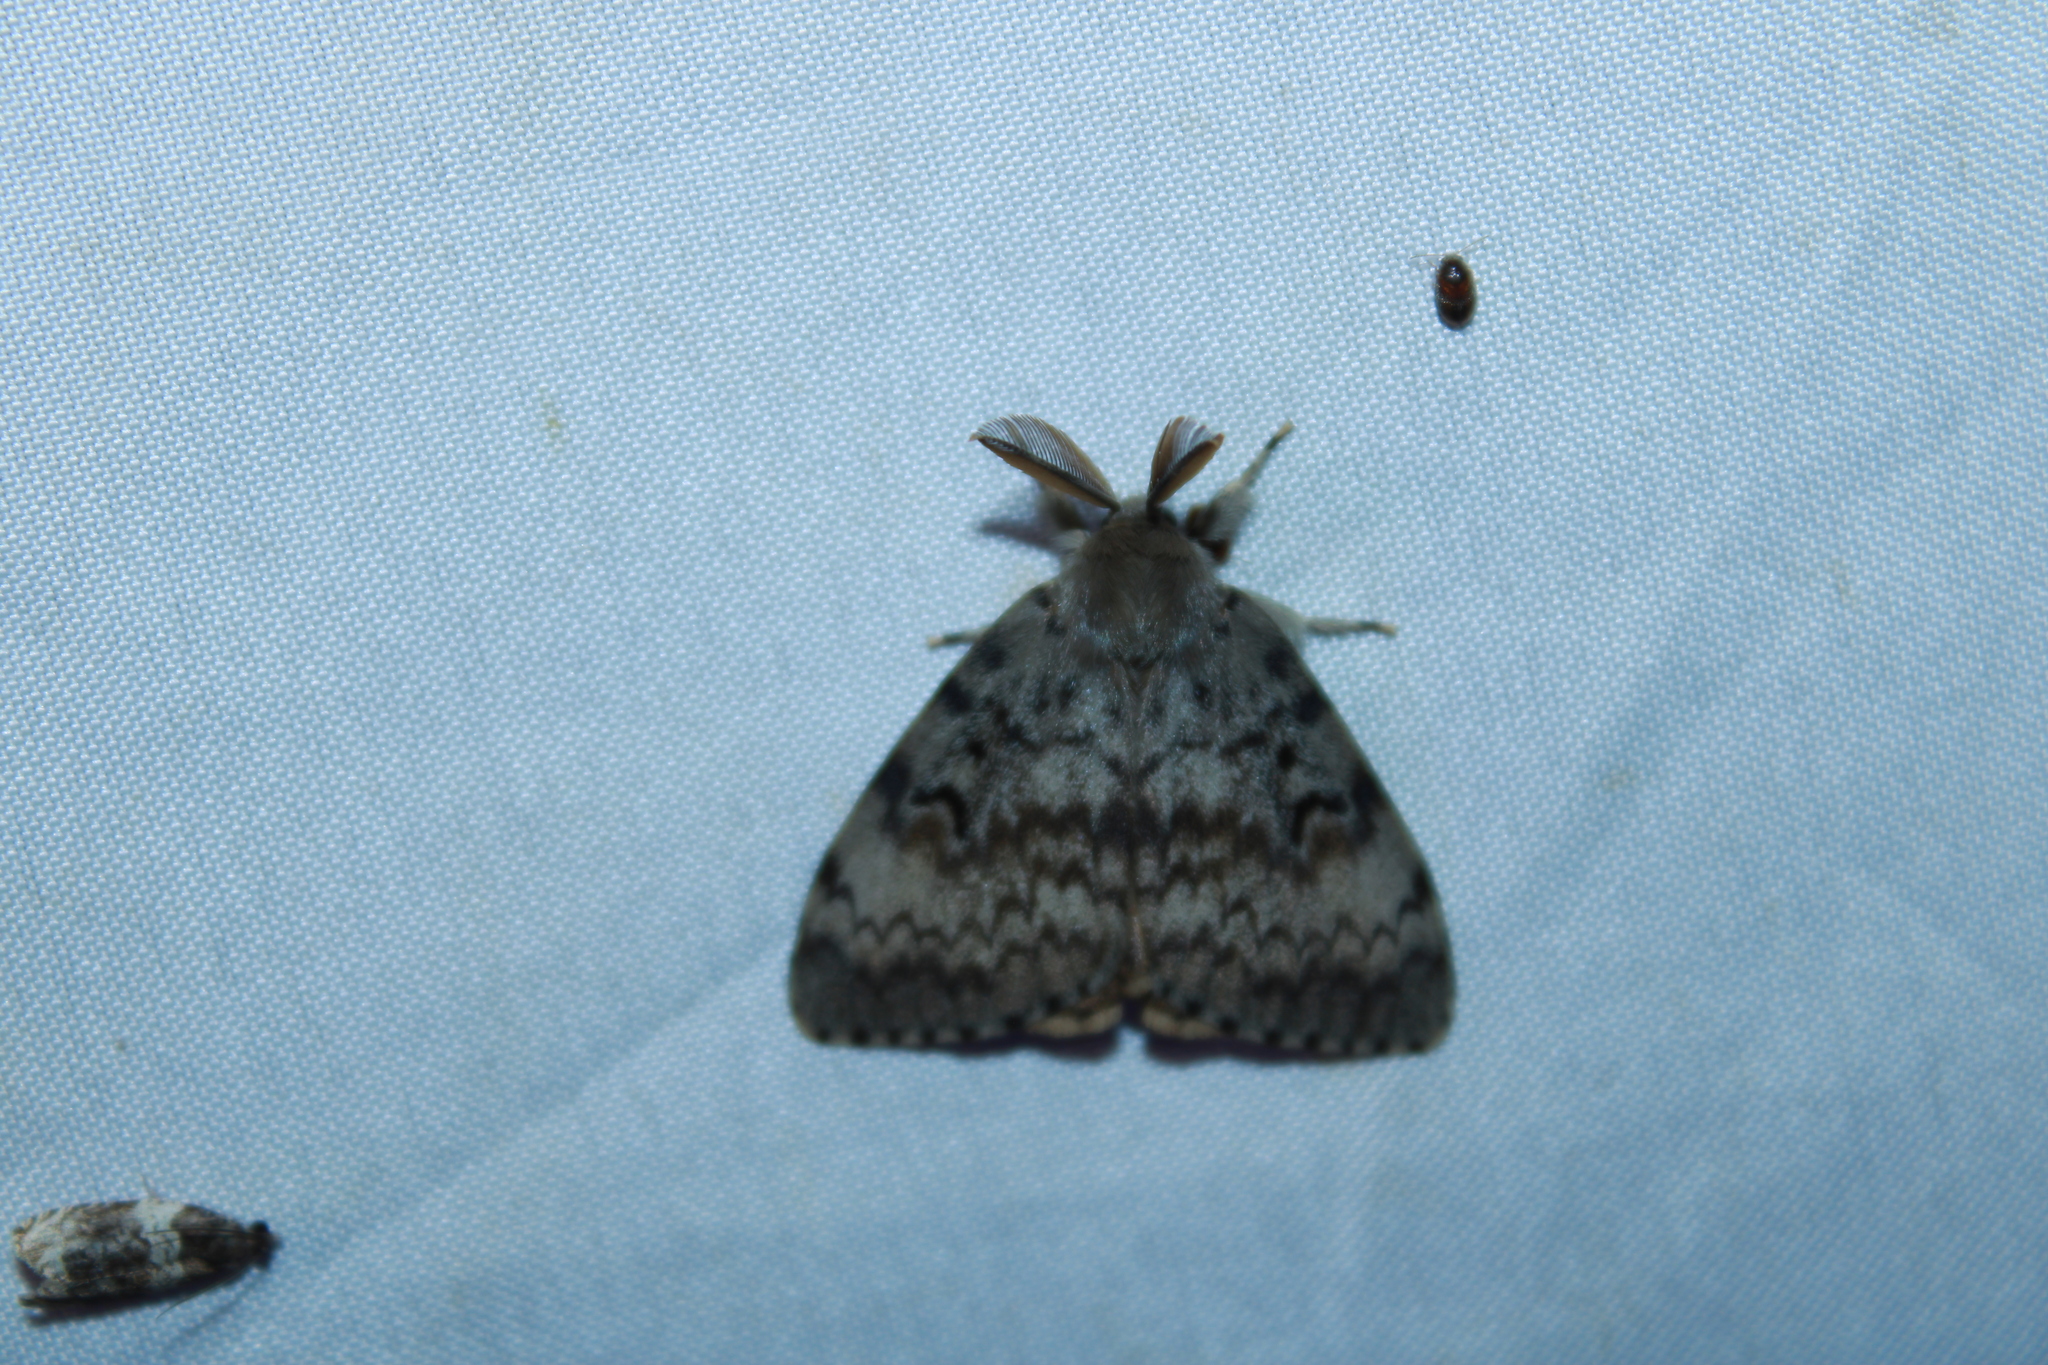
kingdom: Animalia
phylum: Arthropoda
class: Insecta
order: Lepidoptera
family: Erebidae
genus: Lymantria
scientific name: Lymantria dispar
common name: Gypsy moth
